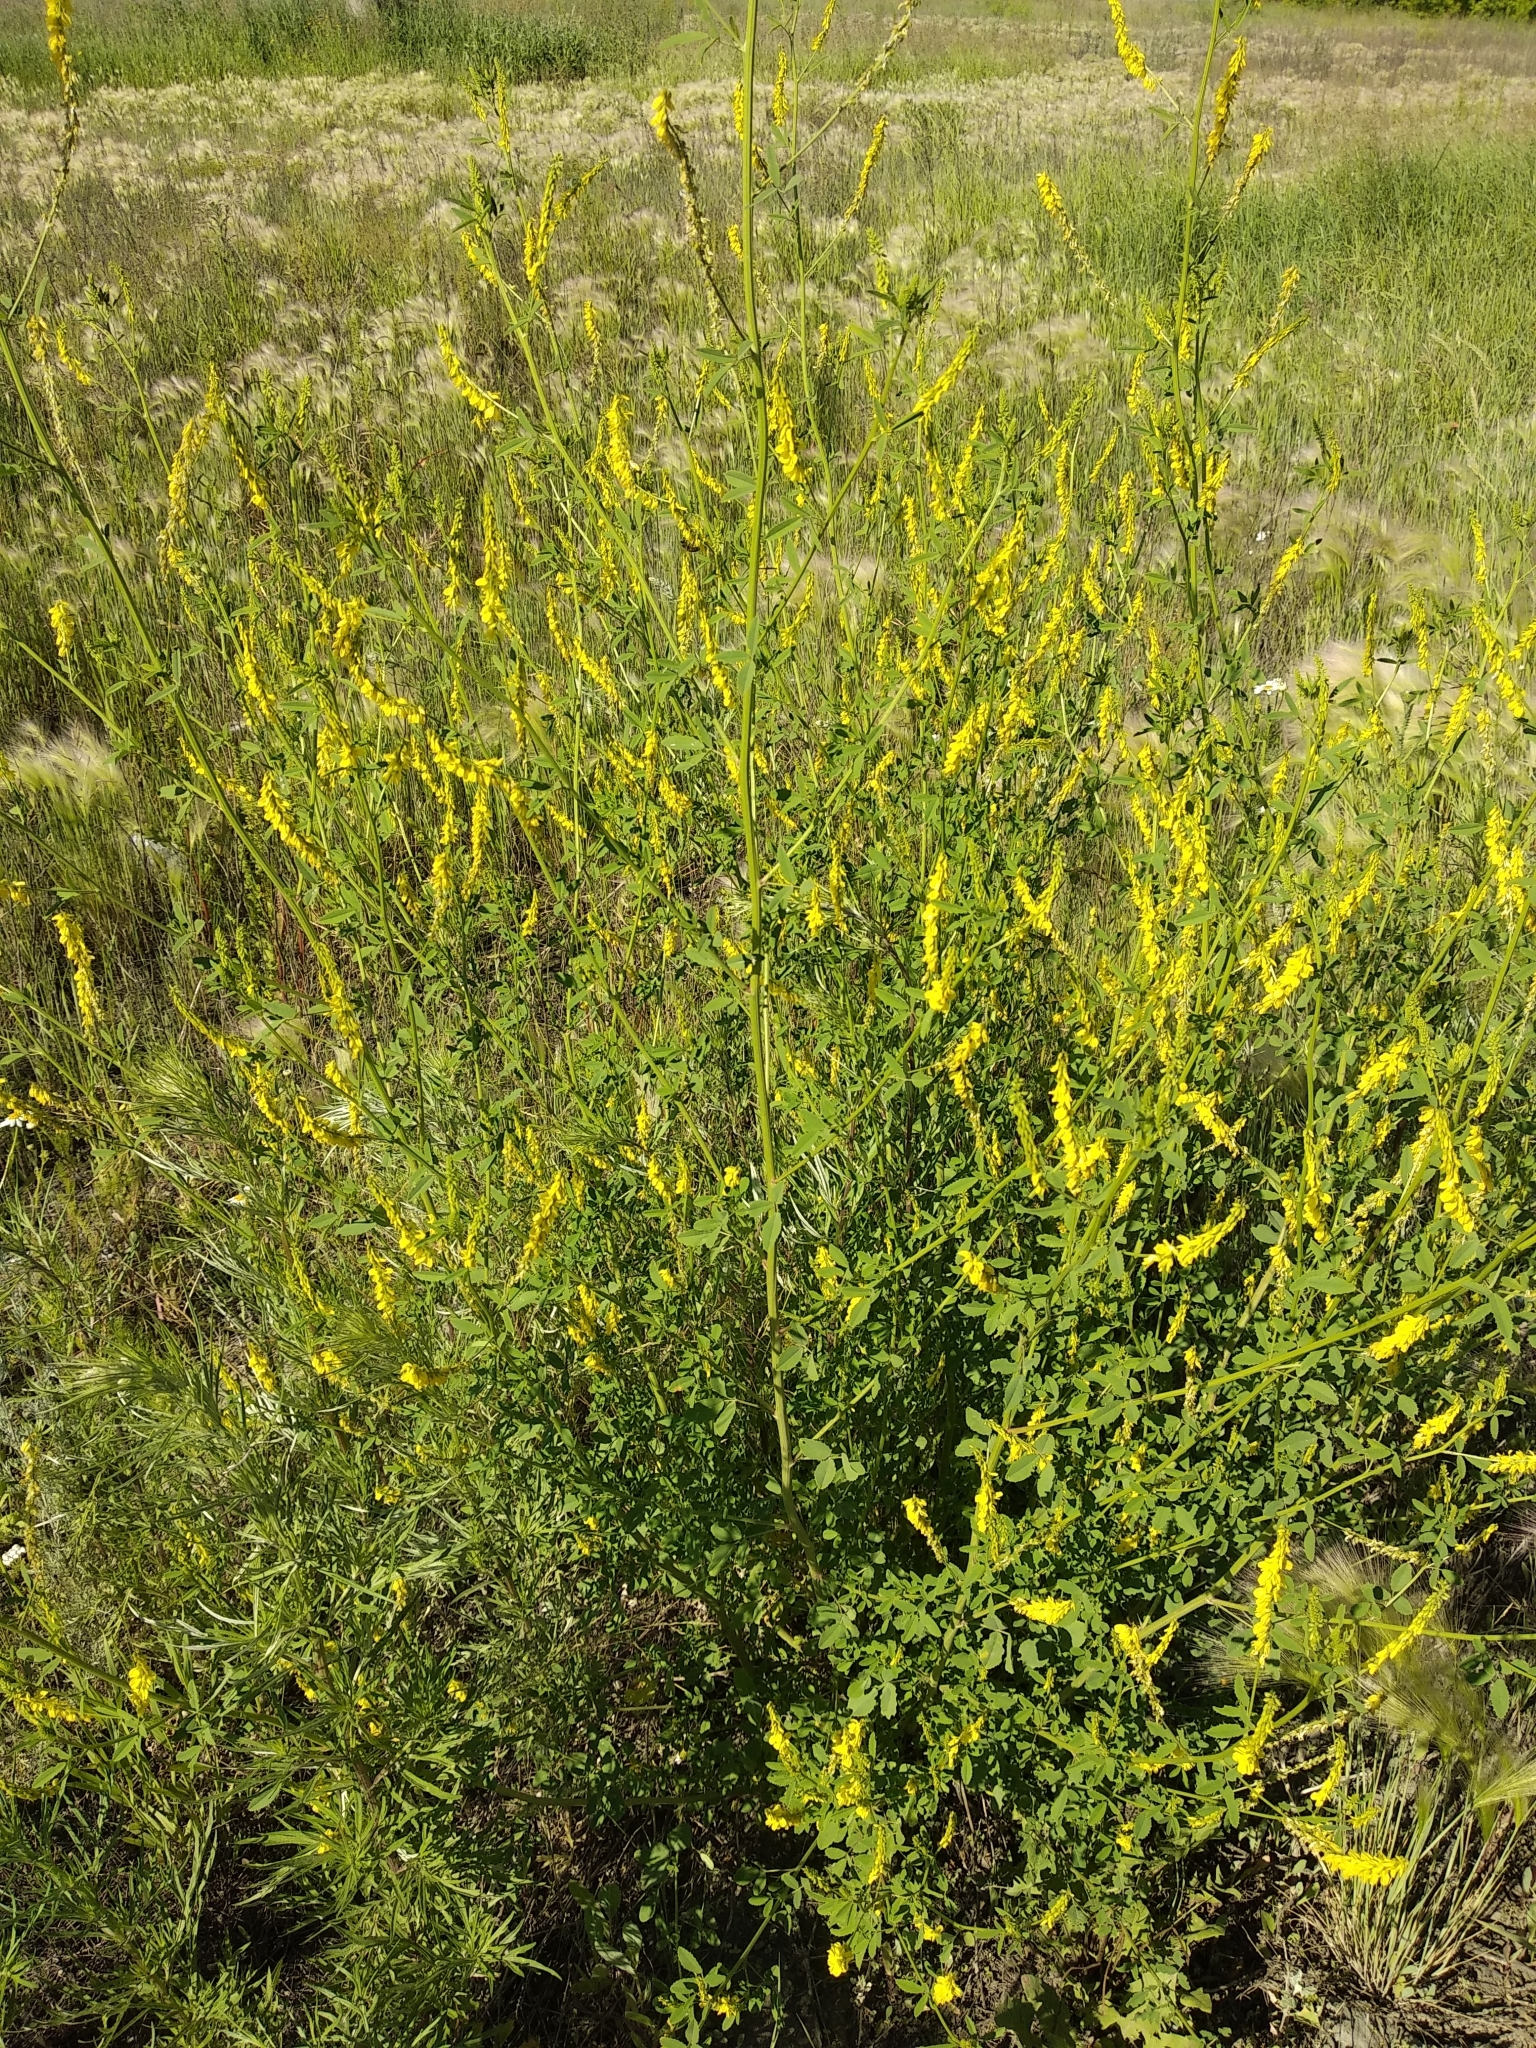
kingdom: Plantae
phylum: Tracheophyta
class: Magnoliopsida
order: Fabales
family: Fabaceae
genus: Melilotus
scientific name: Melilotus officinalis
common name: Sweetclover
